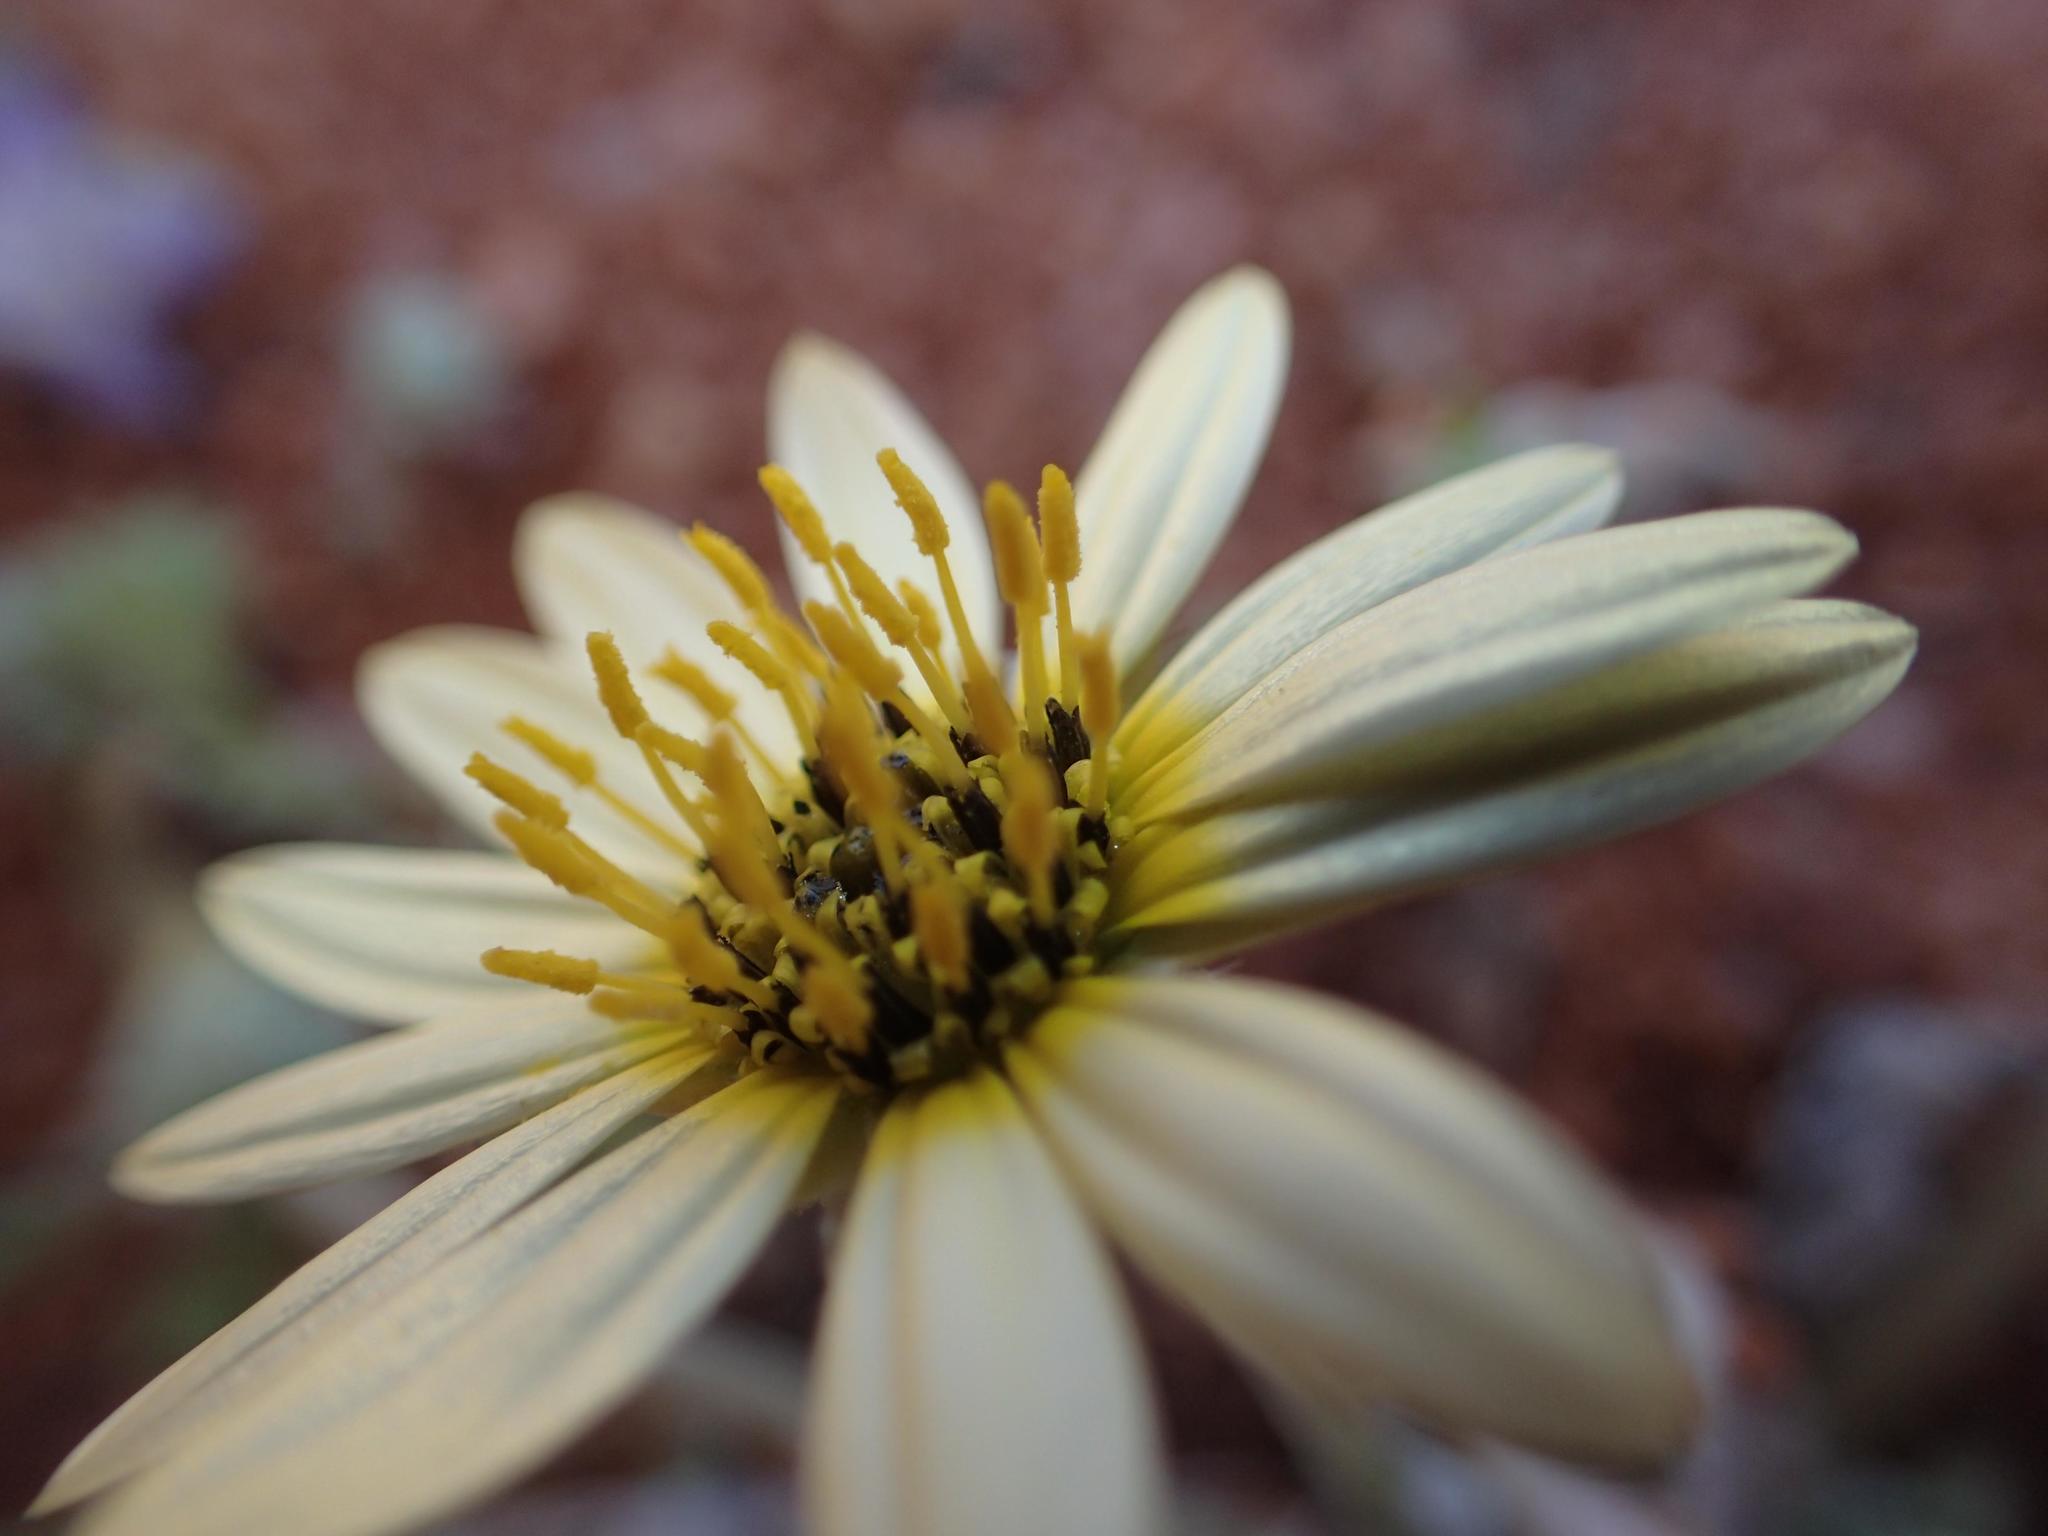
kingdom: Plantae
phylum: Tracheophyta
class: Magnoliopsida
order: Asterales
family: Asteraceae
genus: Arctotheca
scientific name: Arctotheca calendula
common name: Capeweed
